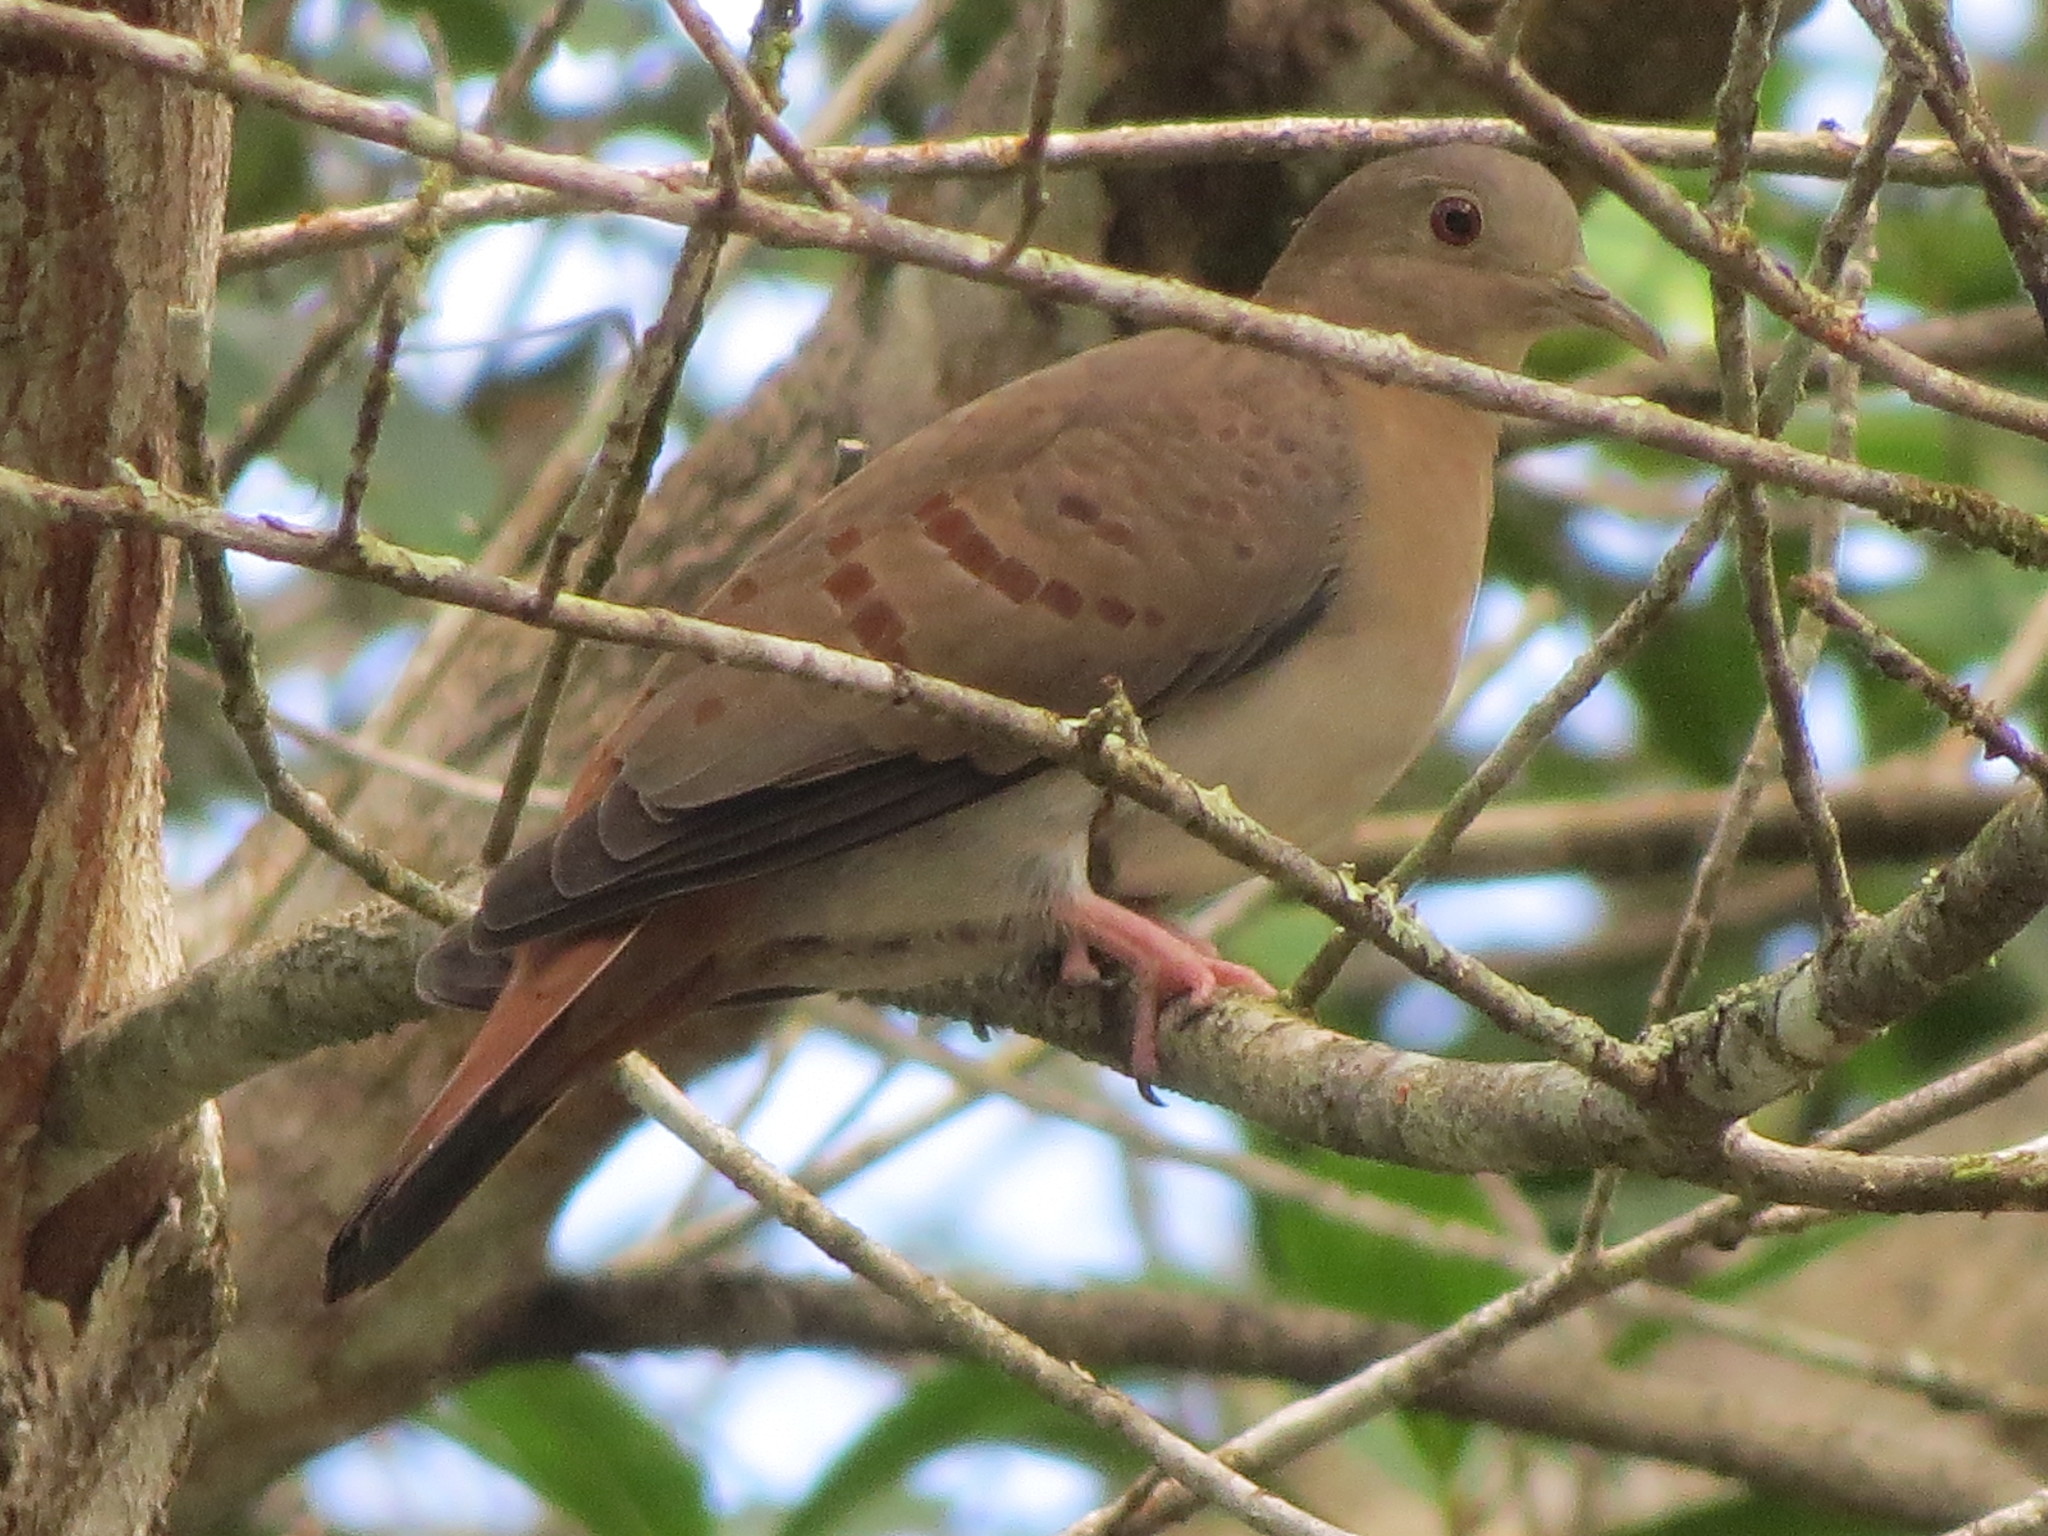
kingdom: Animalia
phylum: Chordata
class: Aves
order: Columbiformes
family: Columbidae
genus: Claravis
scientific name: Claravis pretiosa
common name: Blue ground-dove
